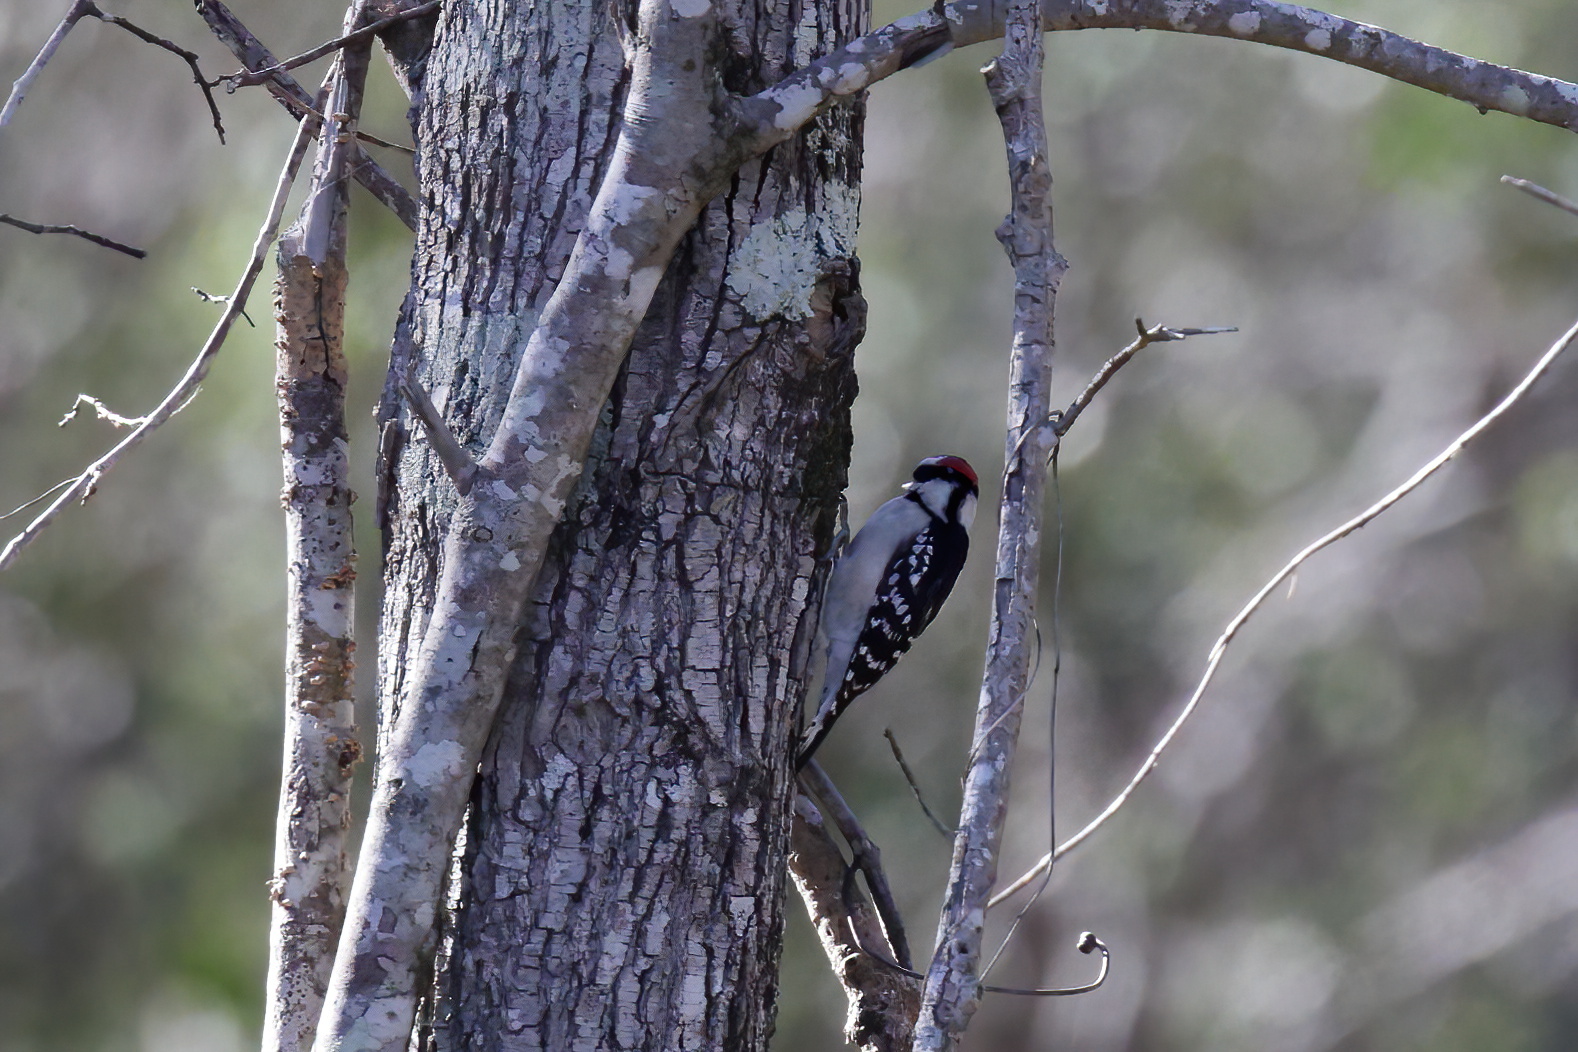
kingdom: Animalia
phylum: Chordata
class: Aves
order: Piciformes
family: Picidae
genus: Dryobates
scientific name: Dryobates pubescens
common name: Downy woodpecker
